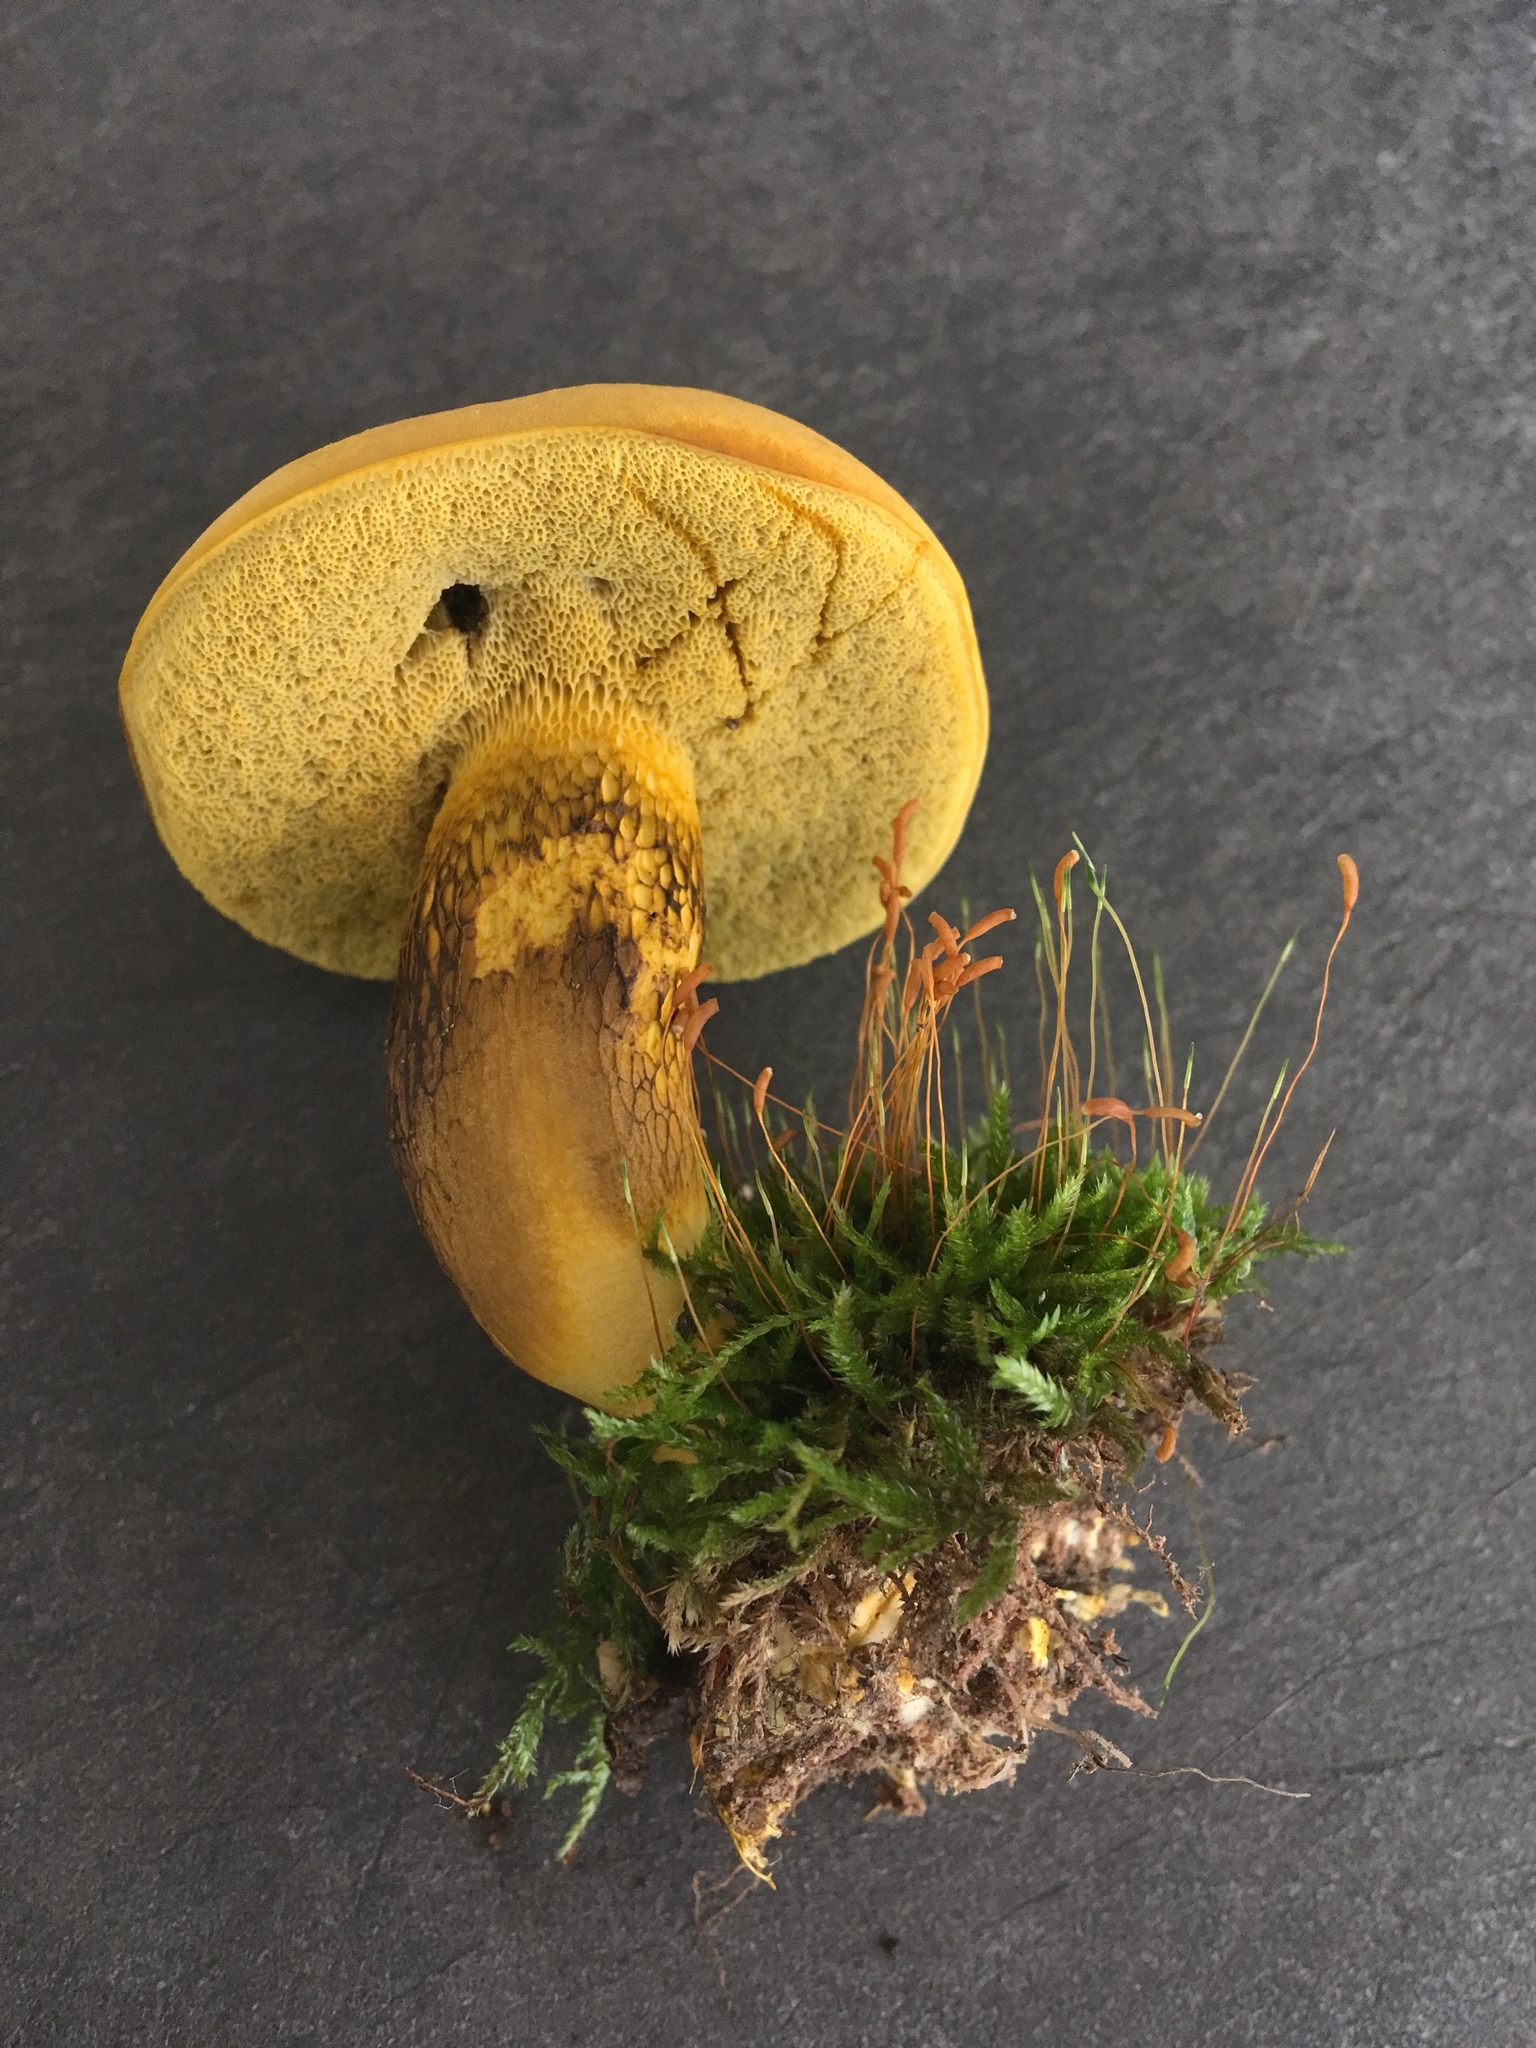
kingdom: Fungi
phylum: Basidiomycota
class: Agaricomycetes
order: Boletales
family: Boletaceae
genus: Retiboletus
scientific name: Retiboletus ornatipes
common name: Ornate-stalked bolete
